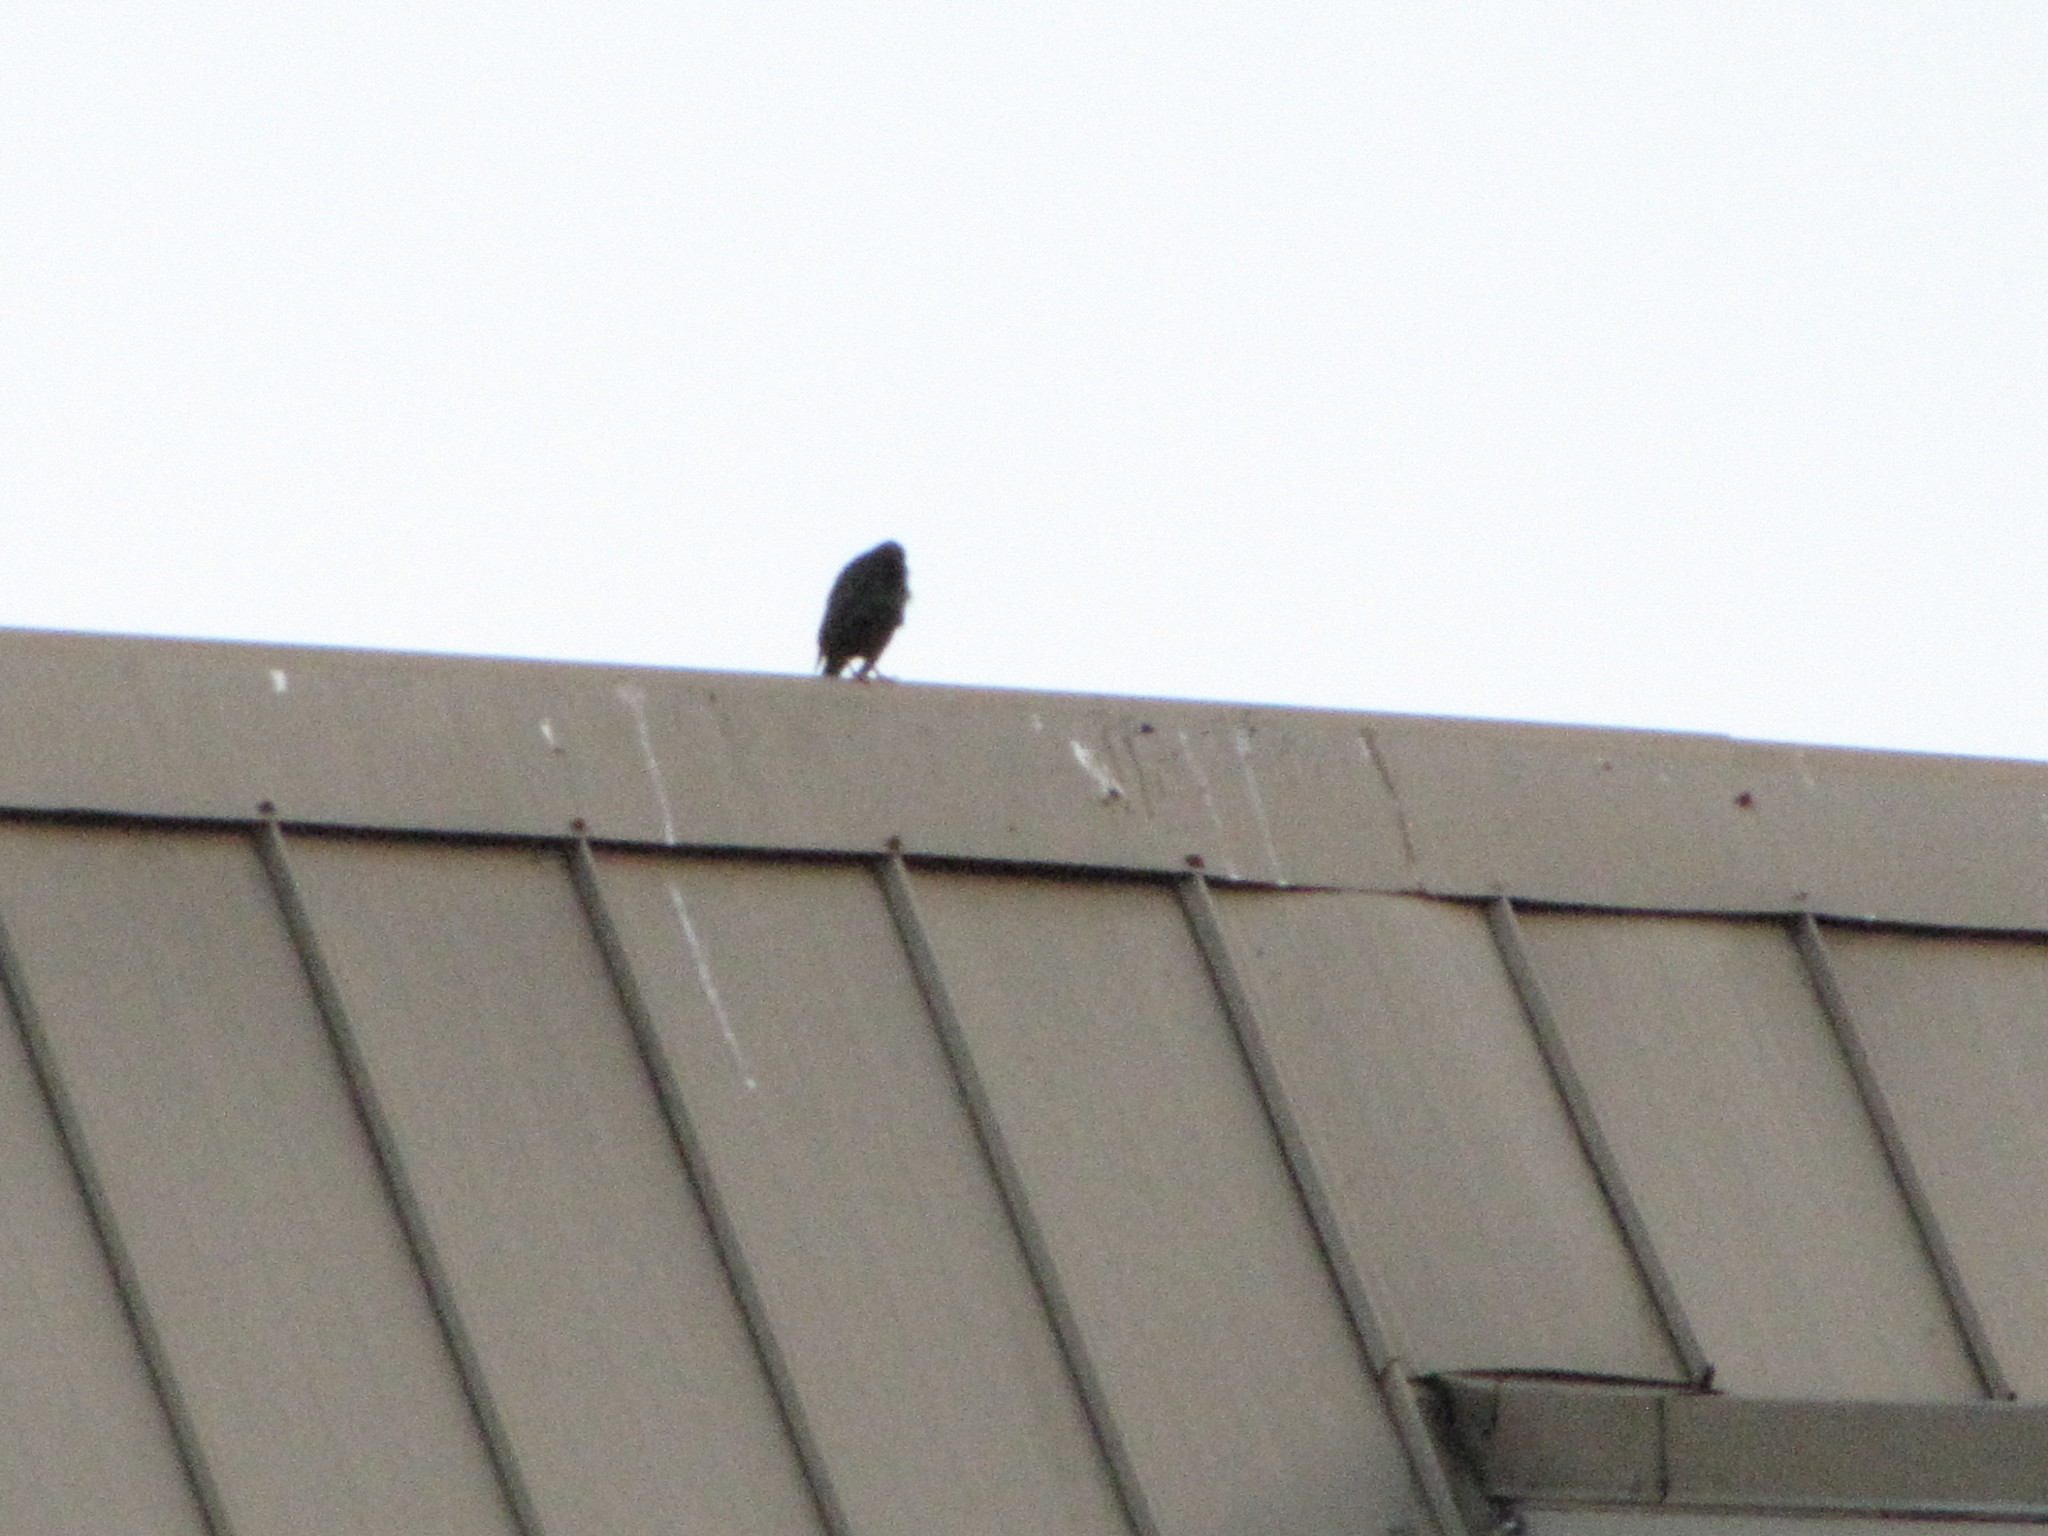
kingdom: Animalia
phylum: Chordata
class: Aves
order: Passeriformes
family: Sturnidae
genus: Sturnus
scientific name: Sturnus vulgaris
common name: Common starling
